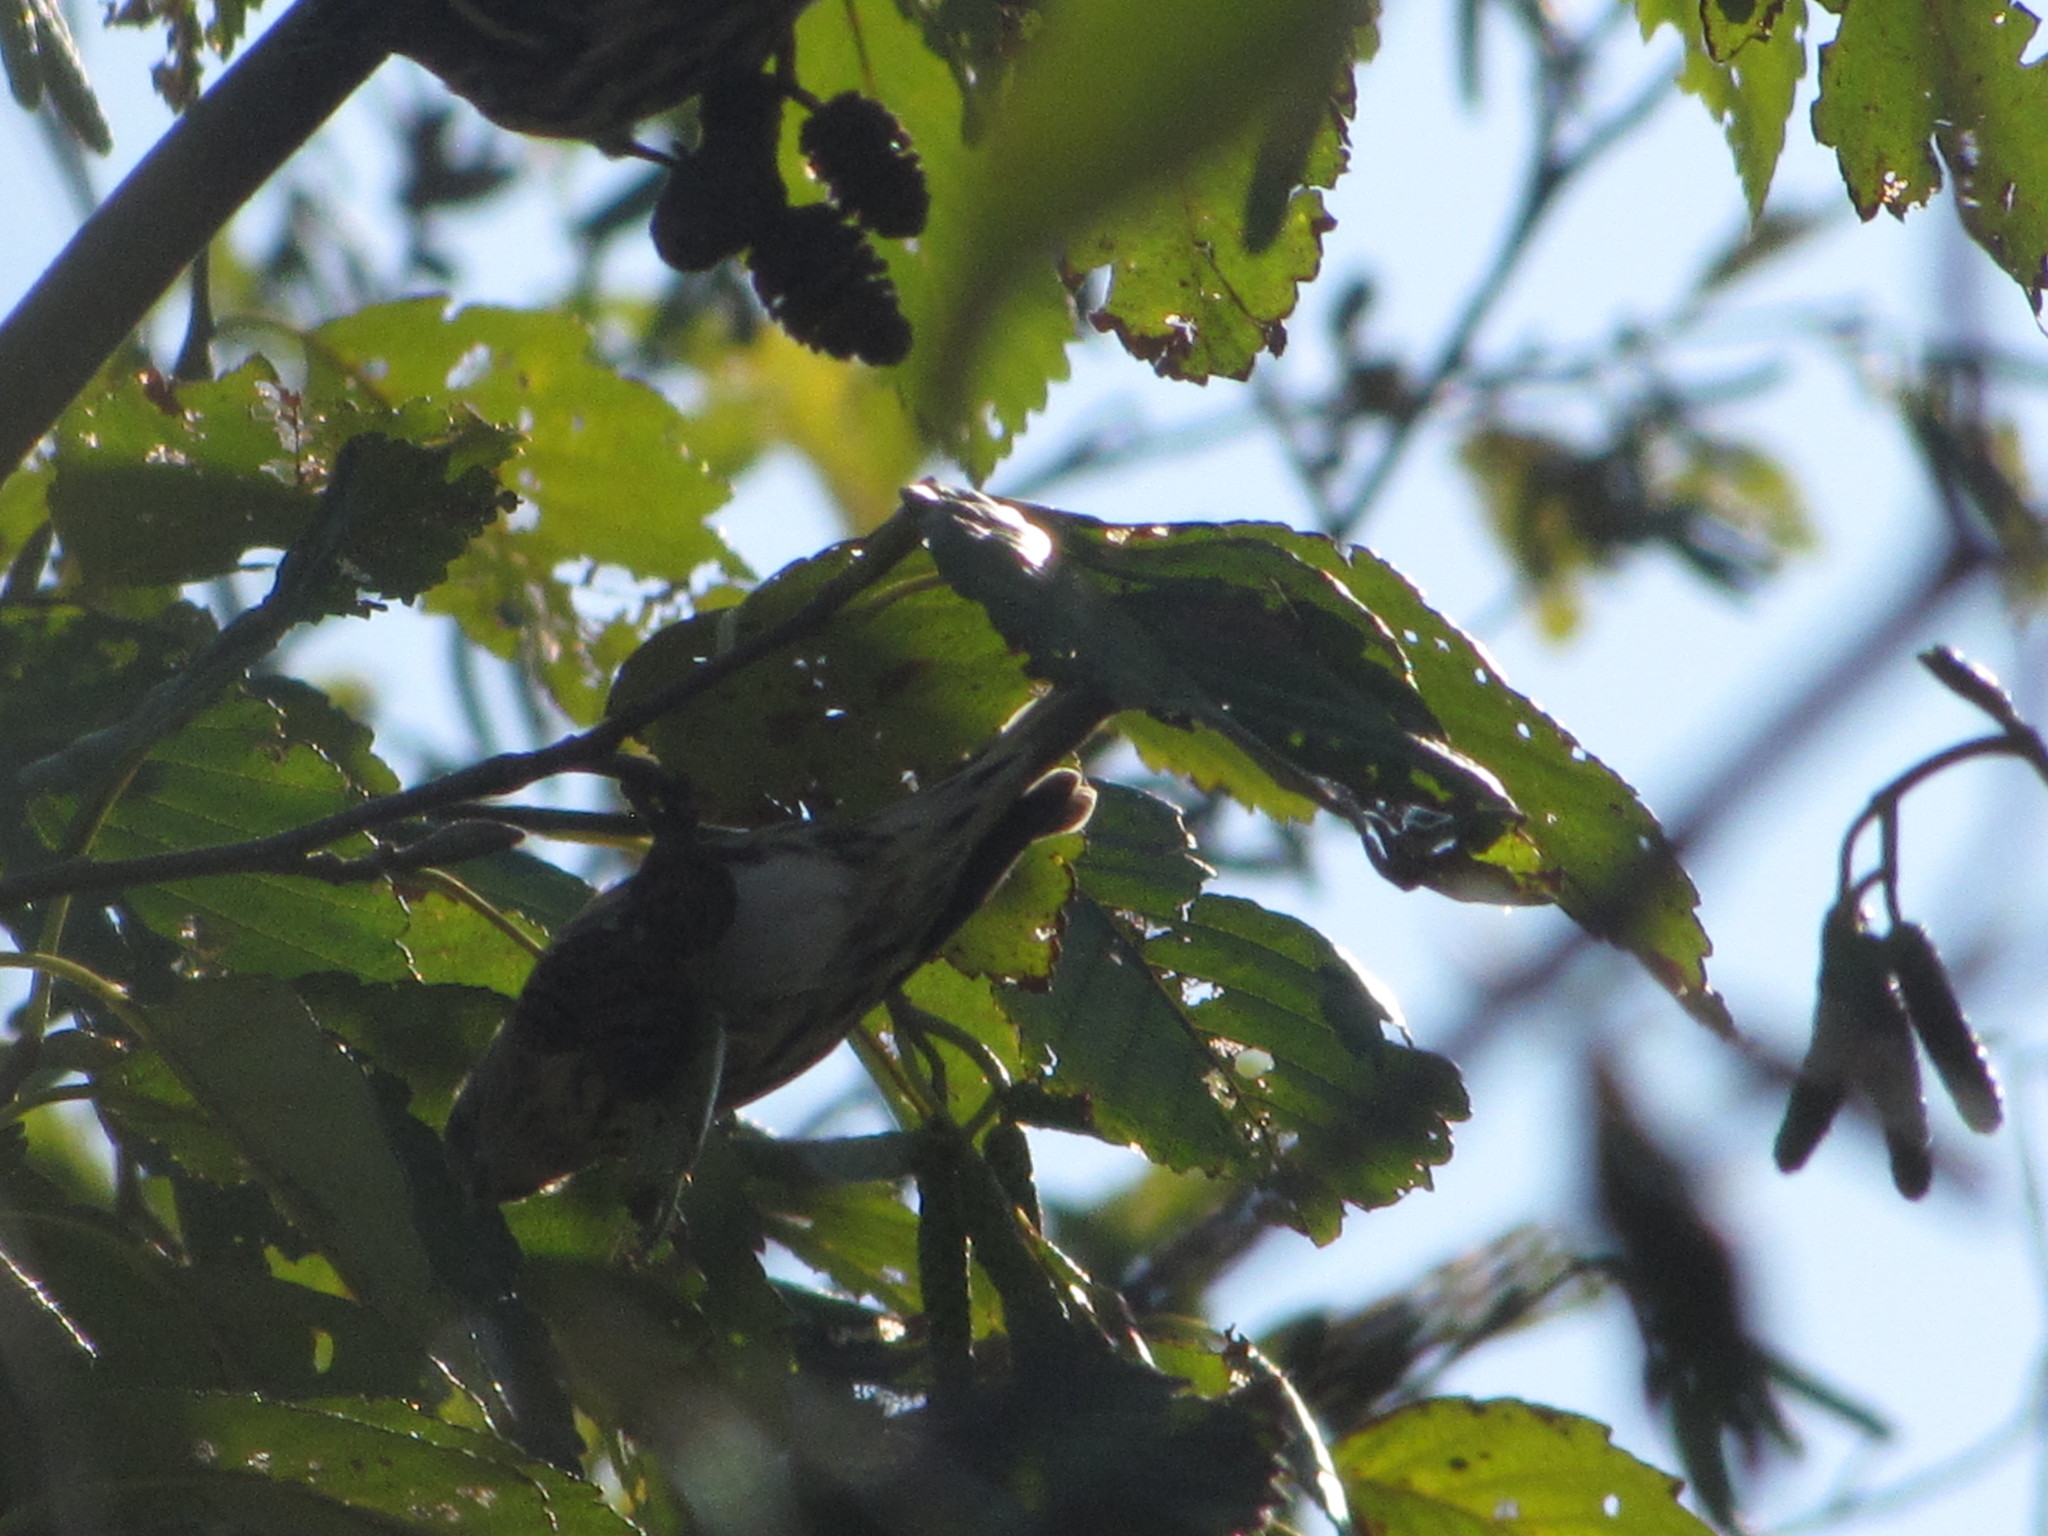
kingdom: Animalia
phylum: Chordata
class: Aves
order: Passeriformes
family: Fringillidae
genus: Spinus
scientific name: Spinus pinus
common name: Pine siskin
